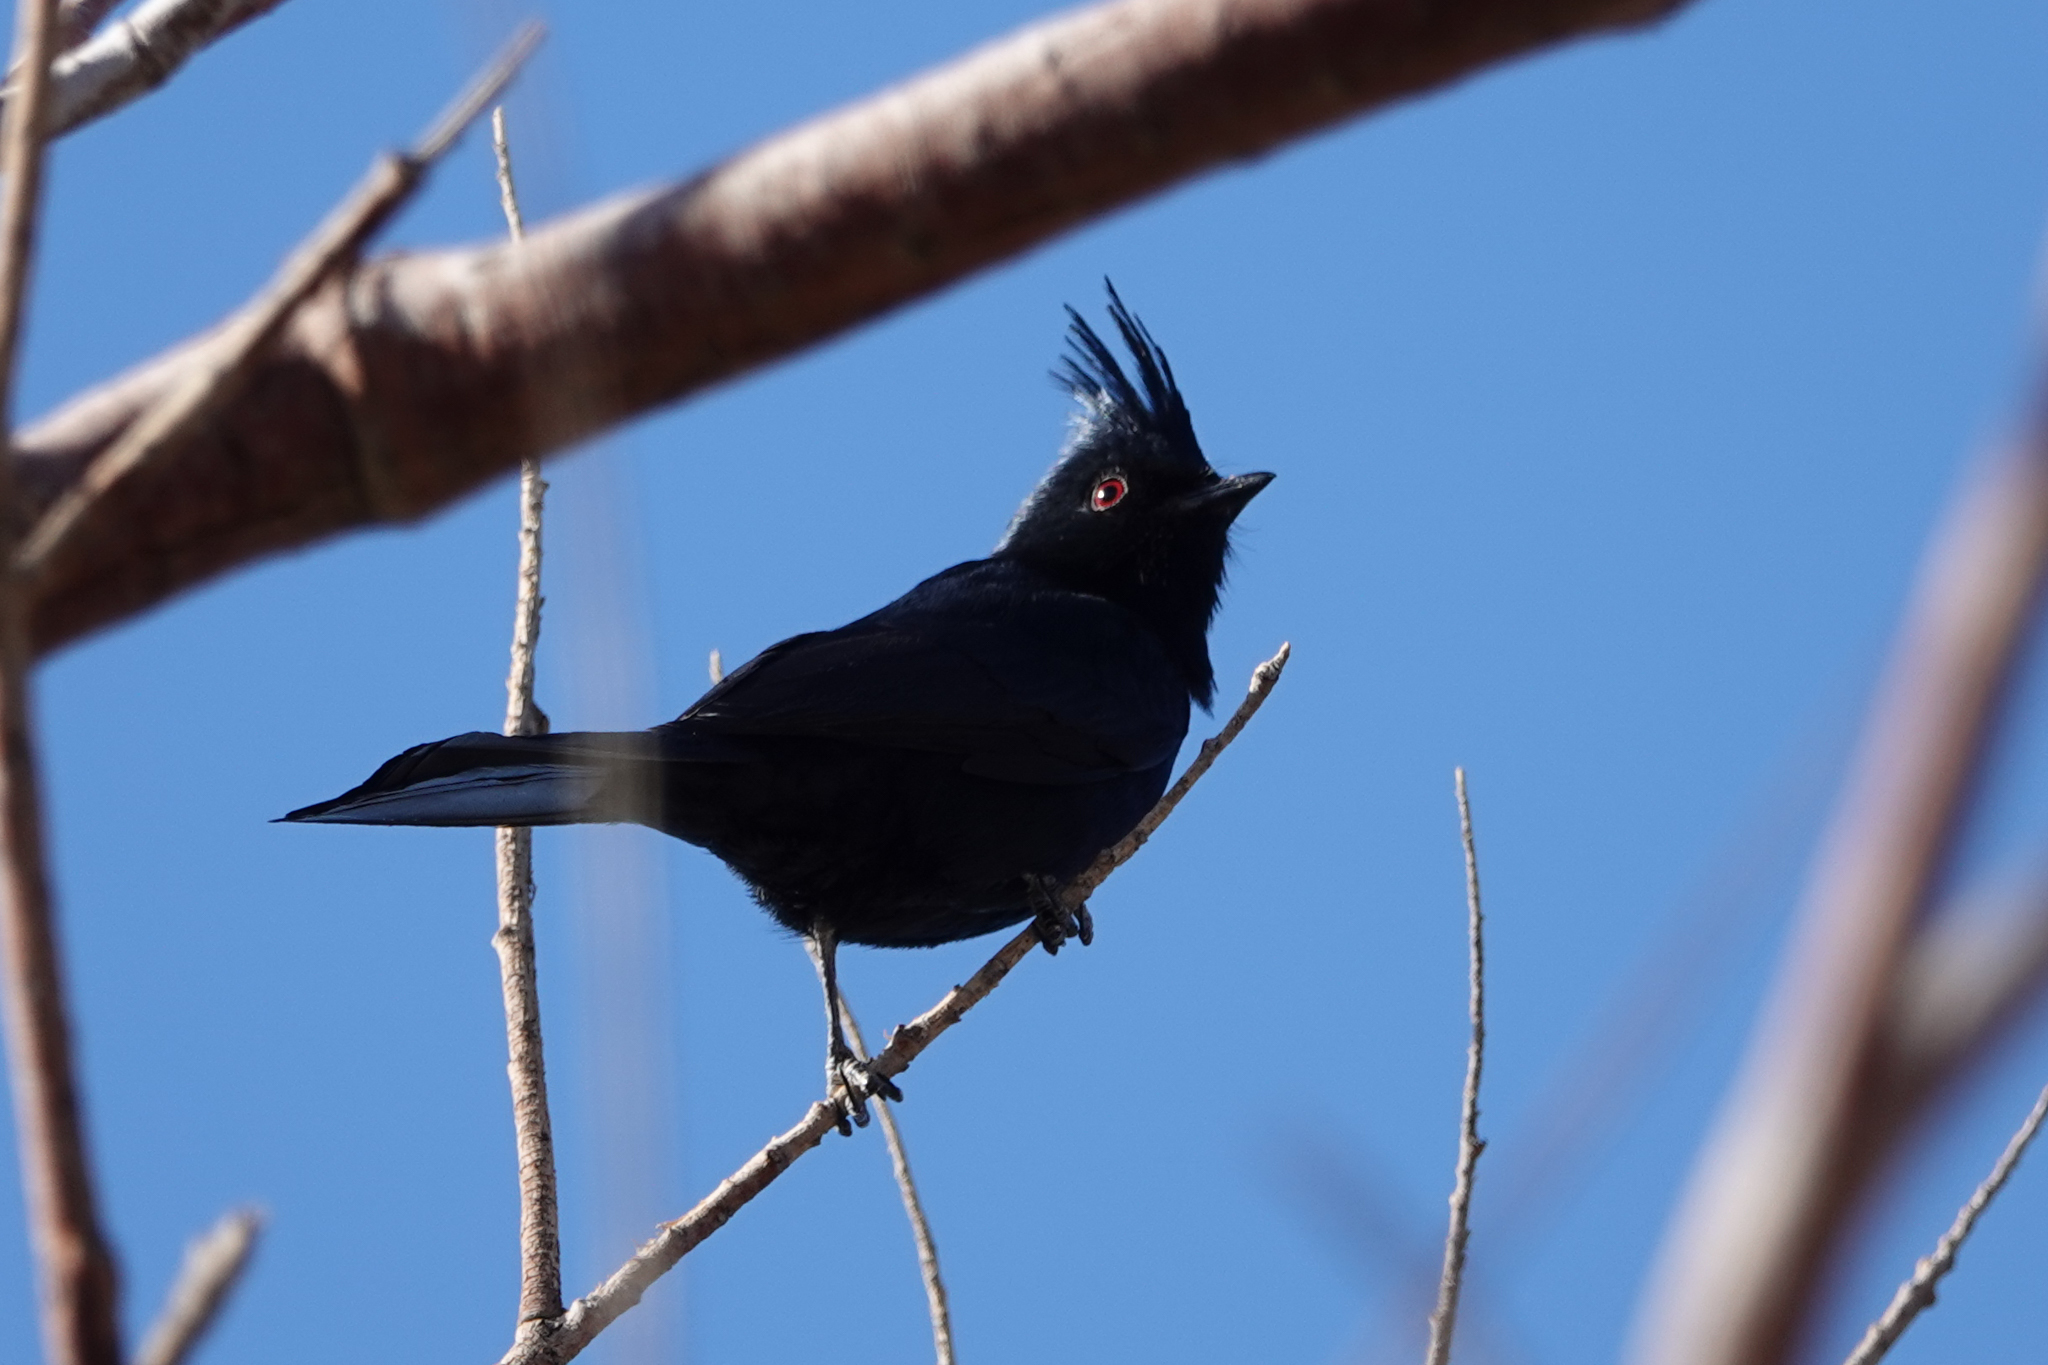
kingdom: Animalia
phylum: Chordata
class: Aves
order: Passeriformes
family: Ptilogonatidae
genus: Phainopepla
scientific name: Phainopepla nitens
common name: Phainopepla
